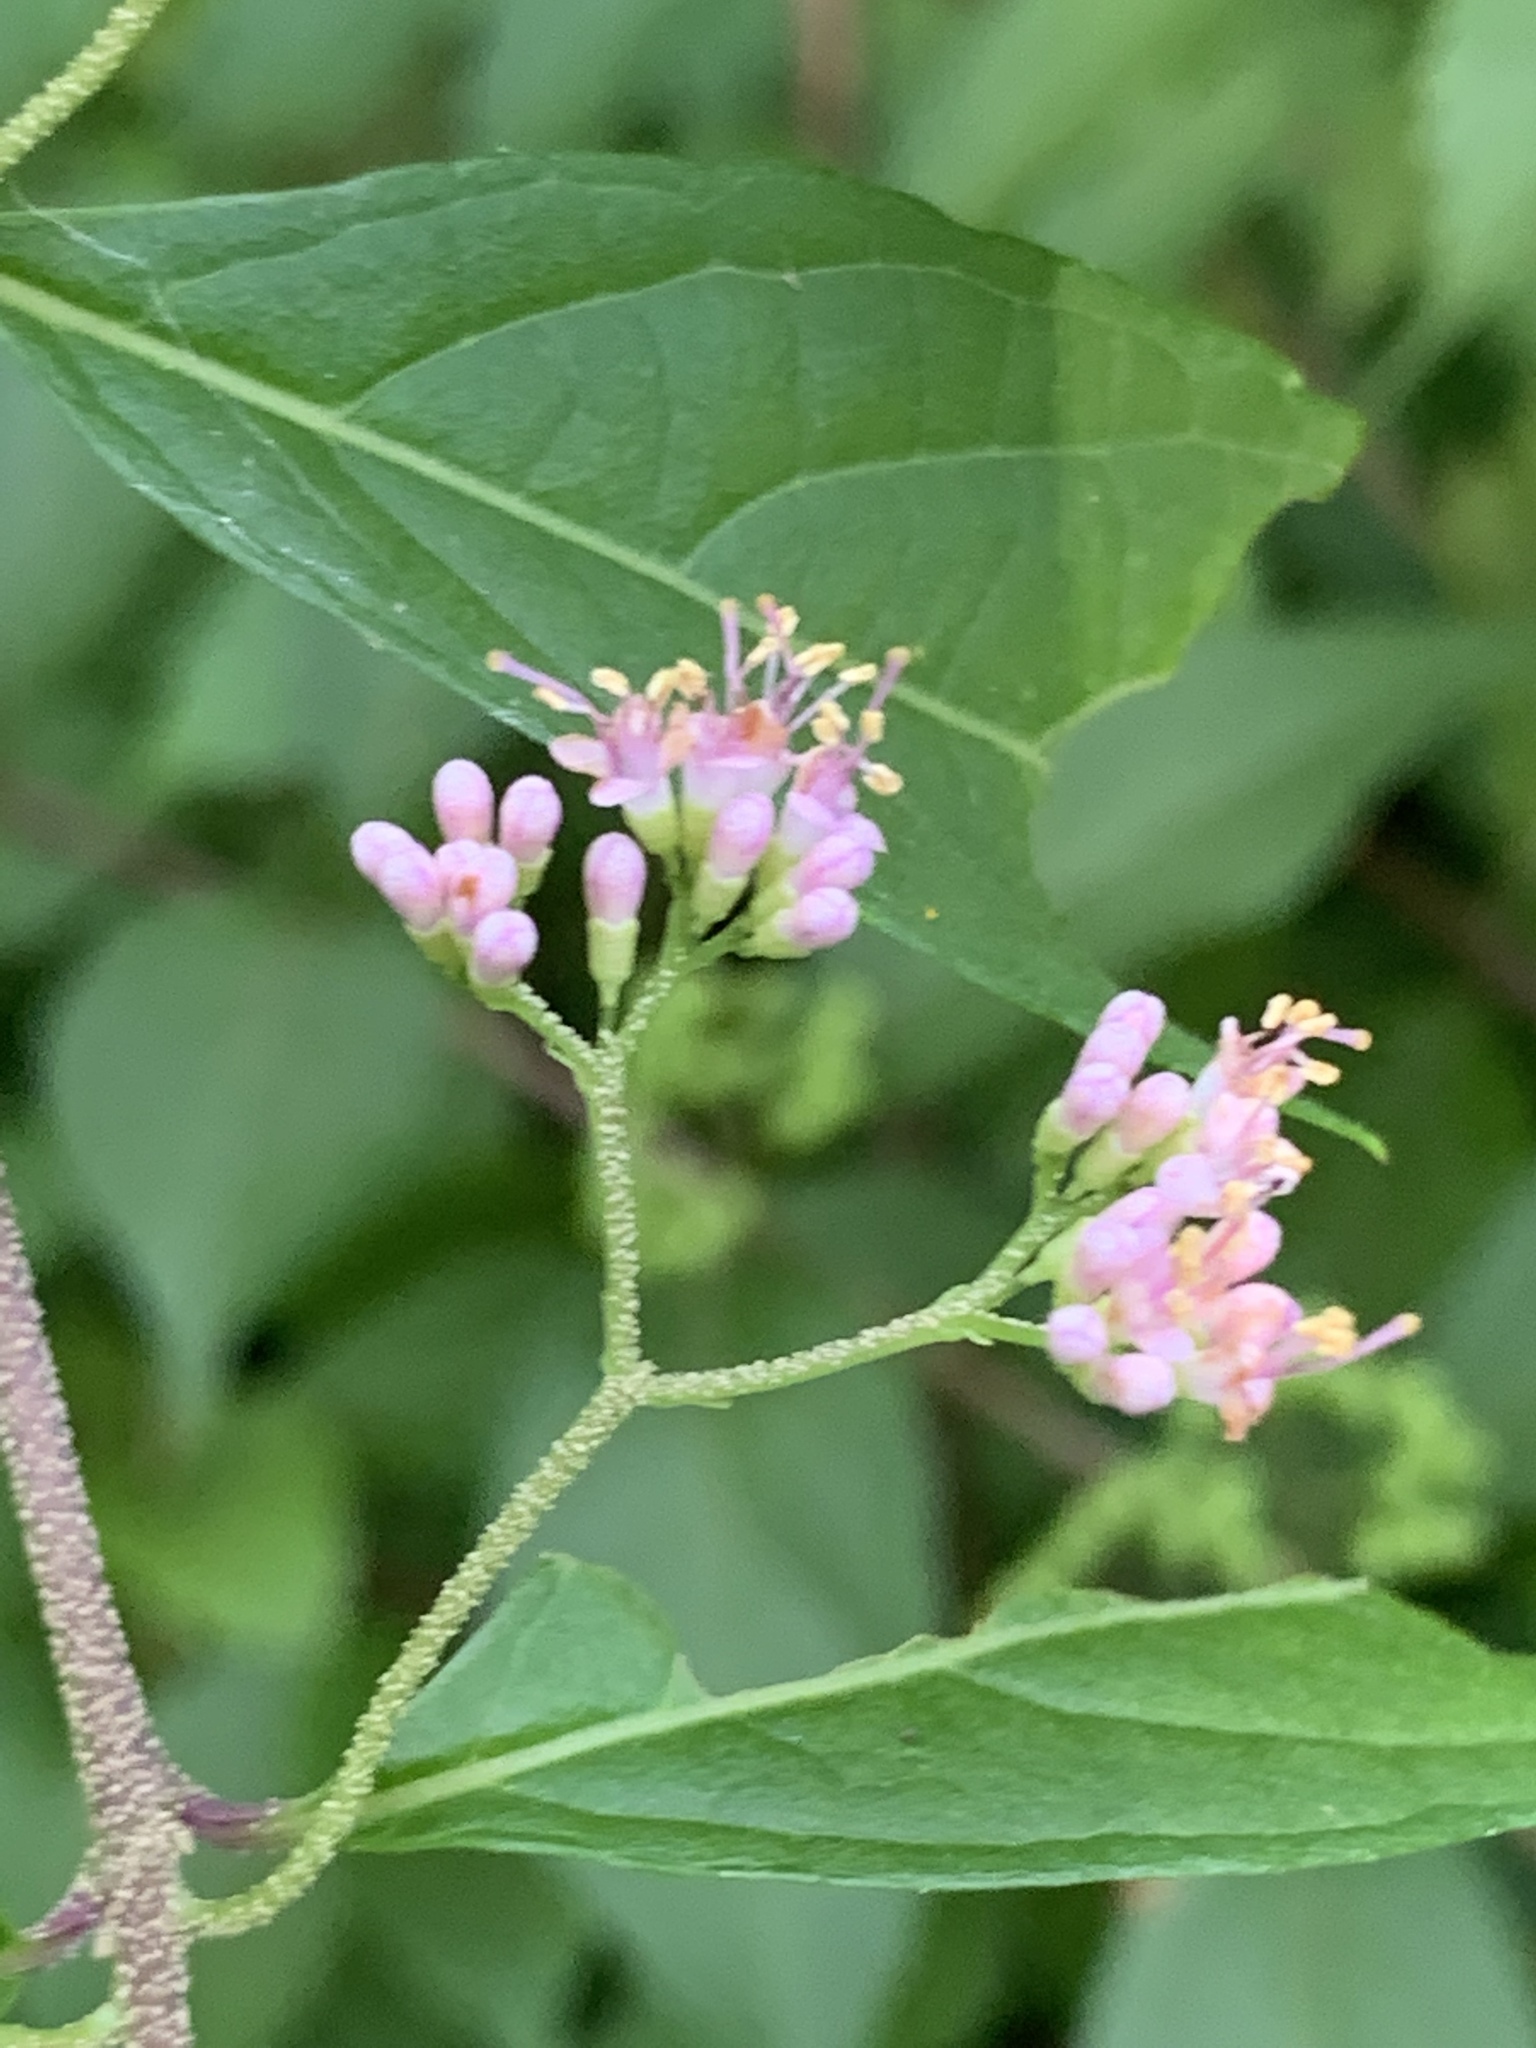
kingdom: Plantae
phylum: Tracheophyta
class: Magnoliopsida
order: Lamiales
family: Lamiaceae
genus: Callicarpa
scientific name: Callicarpa dichotoma
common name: Purple beauty-berry
